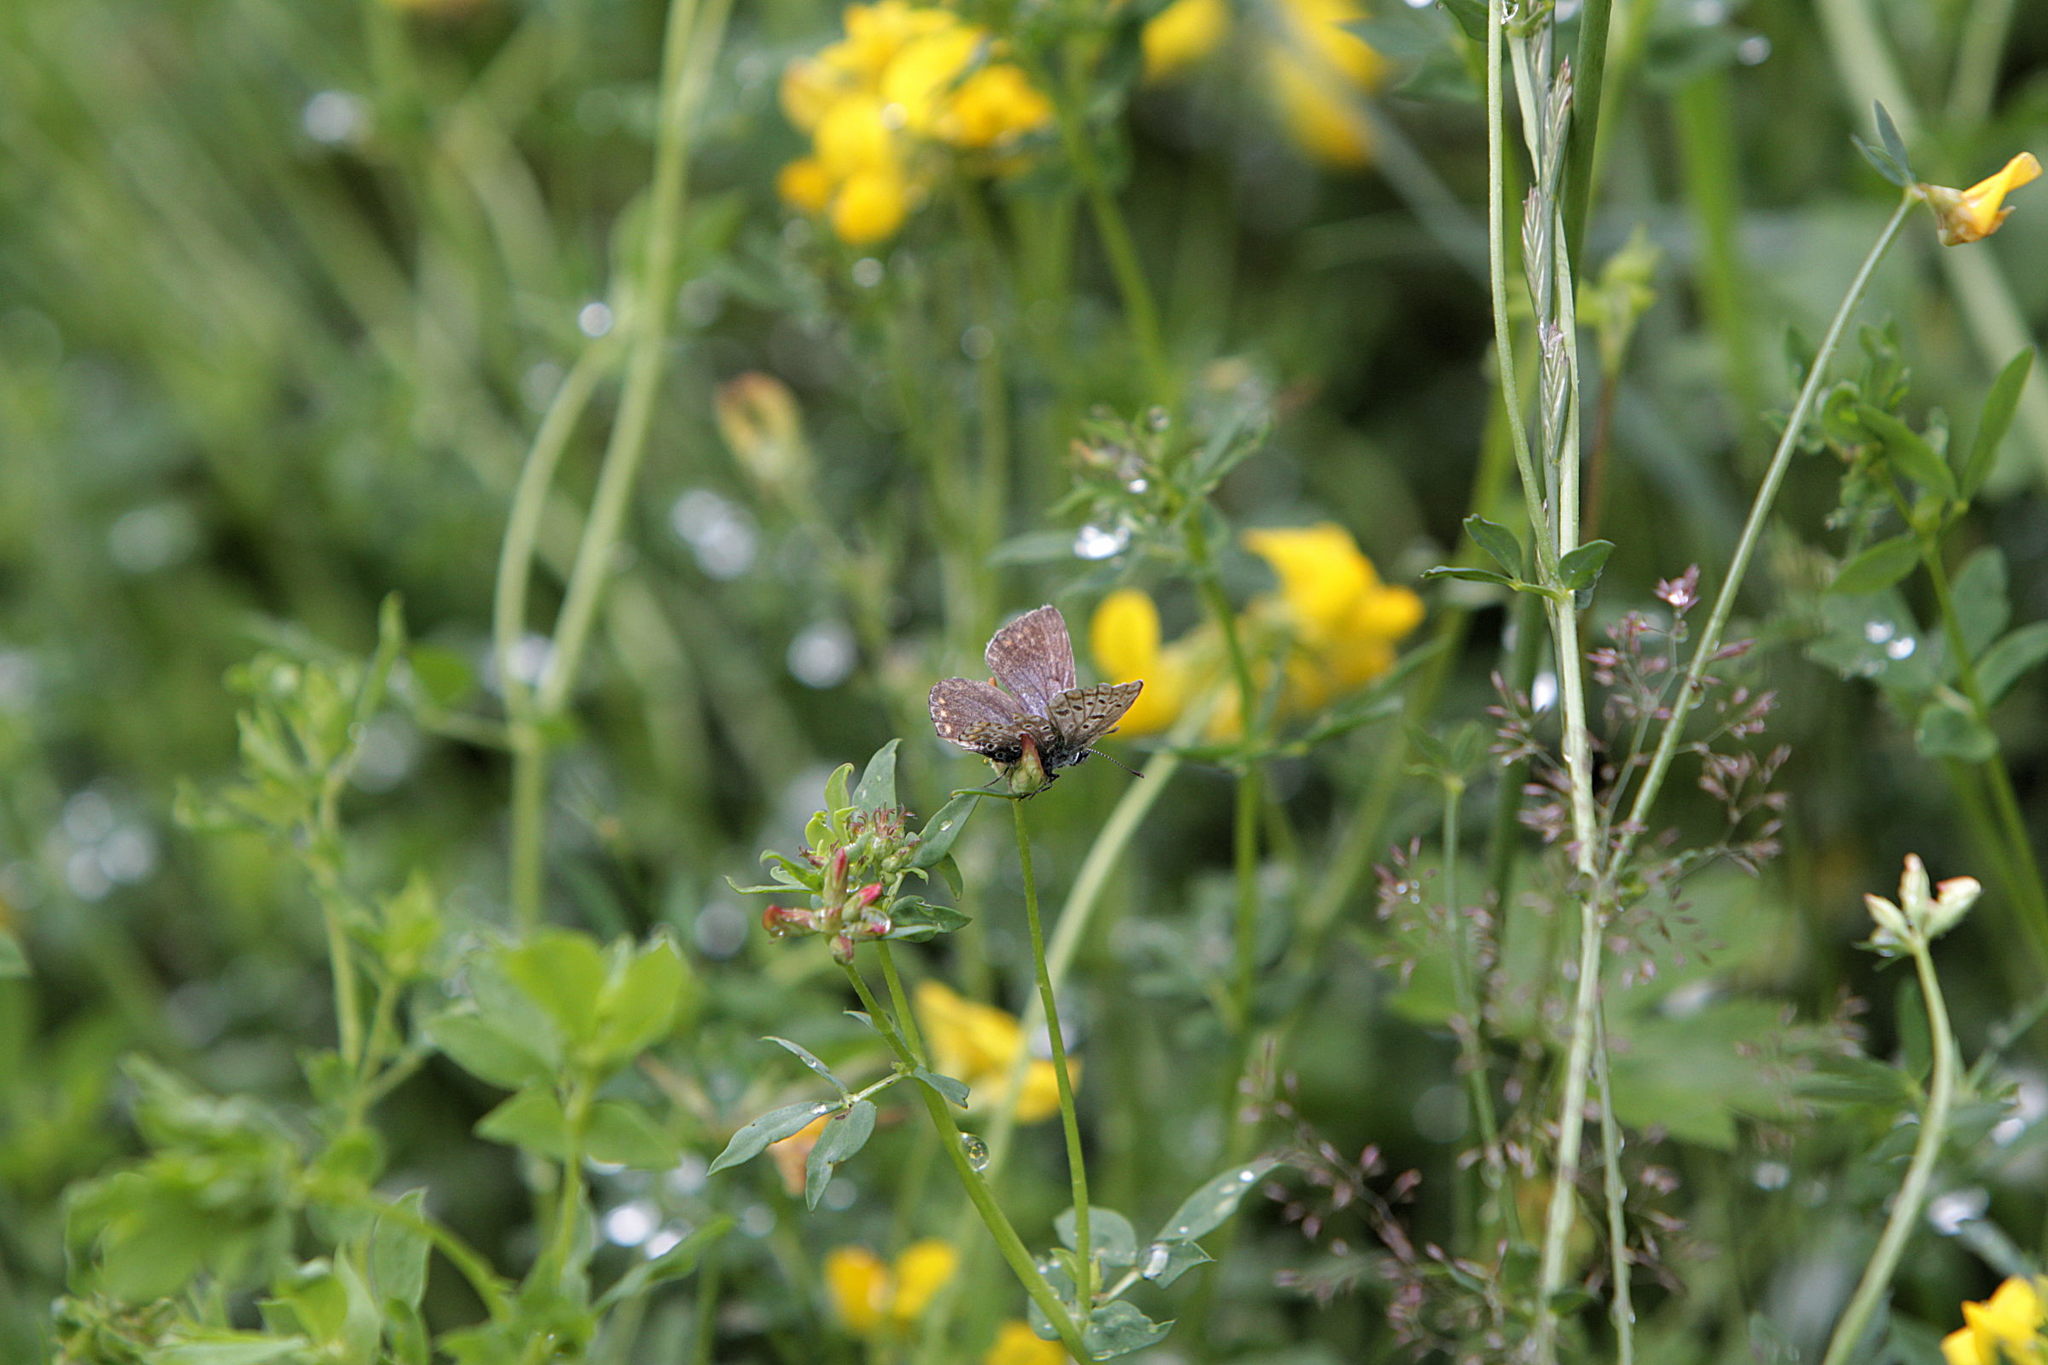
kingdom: Animalia
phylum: Arthropoda
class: Insecta
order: Lepidoptera
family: Lycaenidae
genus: Polyommatus
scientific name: Polyommatus icarus
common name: Common blue
